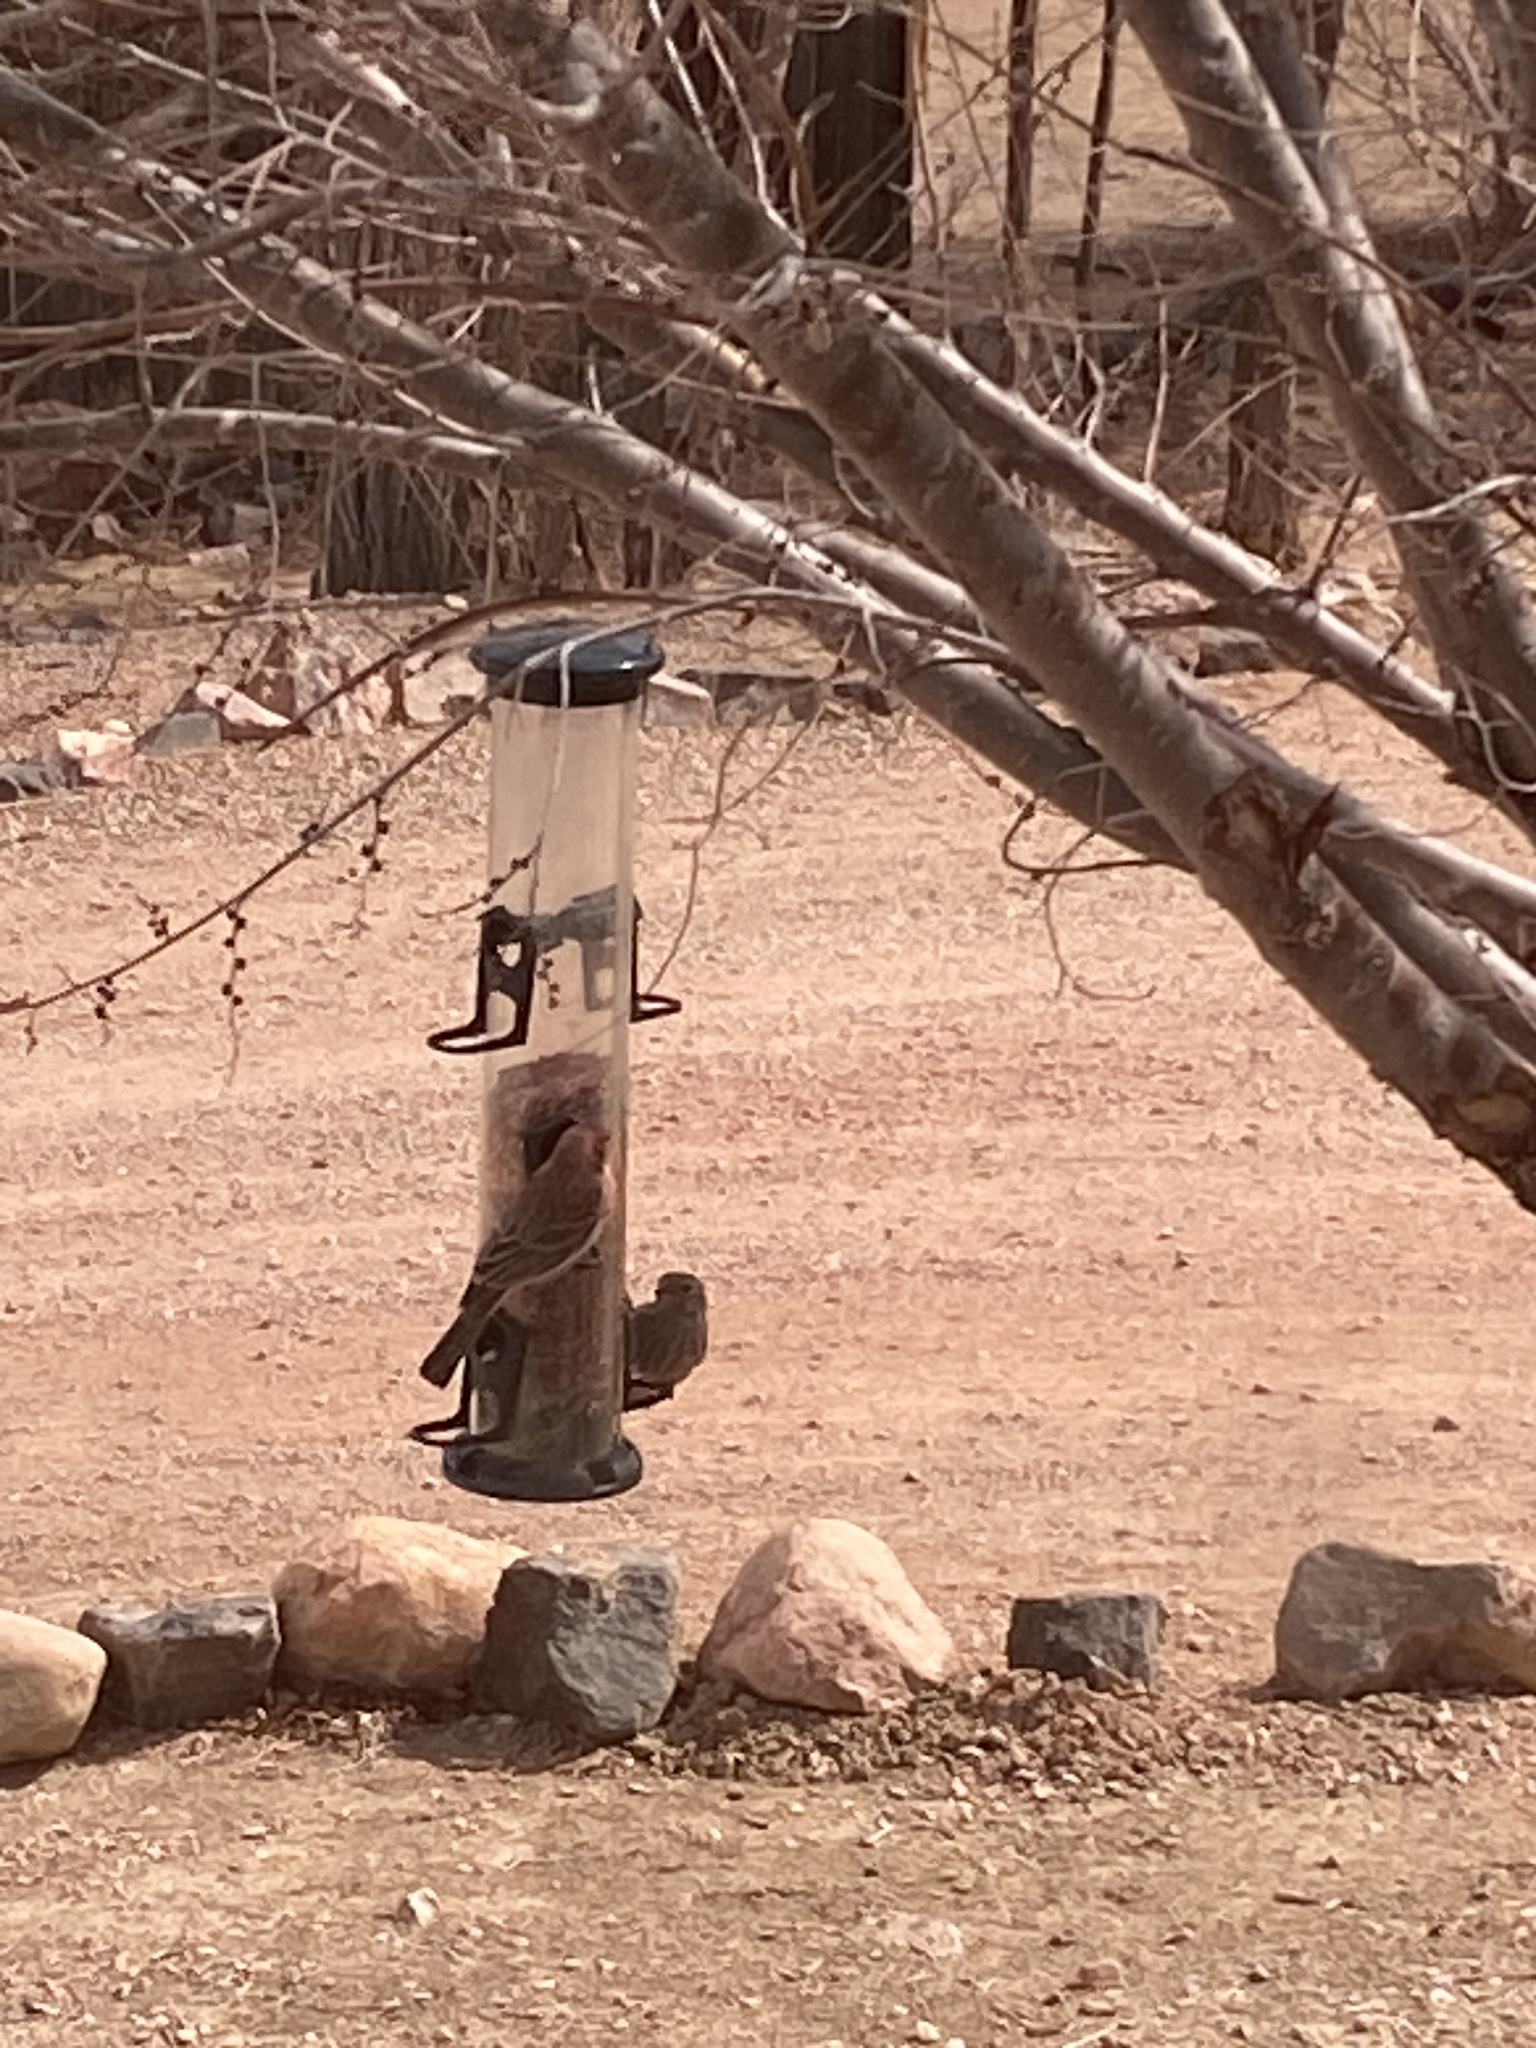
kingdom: Animalia
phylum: Chordata
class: Aves
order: Passeriformes
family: Fringillidae
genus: Haemorhous
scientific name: Haemorhous mexicanus
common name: House finch
